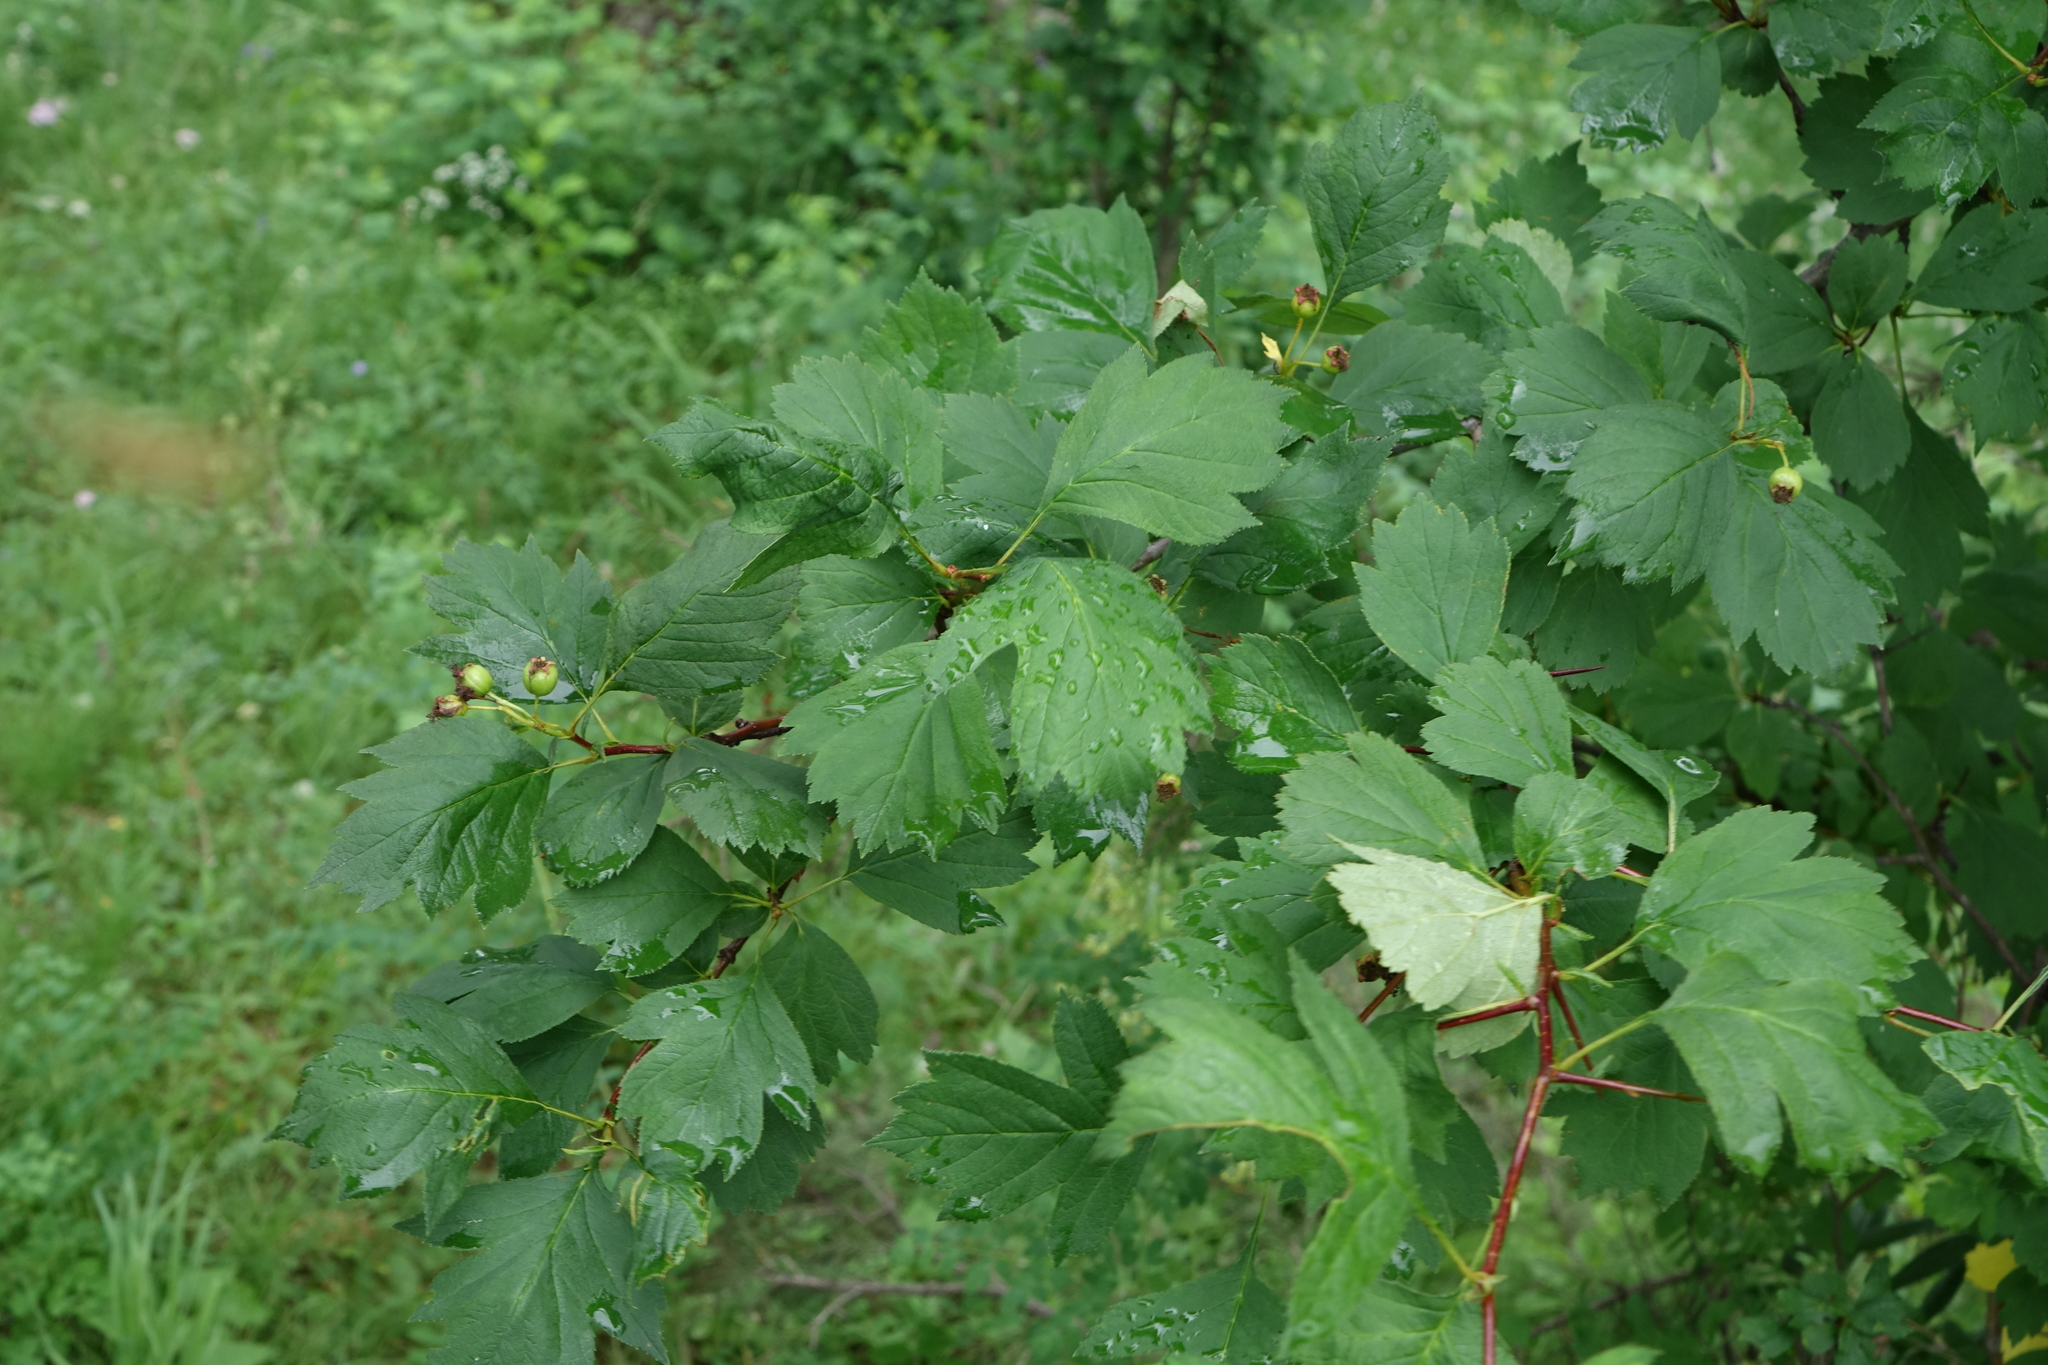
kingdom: Plantae
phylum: Tracheophyta
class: Magnoliopsida
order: Rosales
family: Rosaceae
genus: Crataegus
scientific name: Crataegus sanguinea
